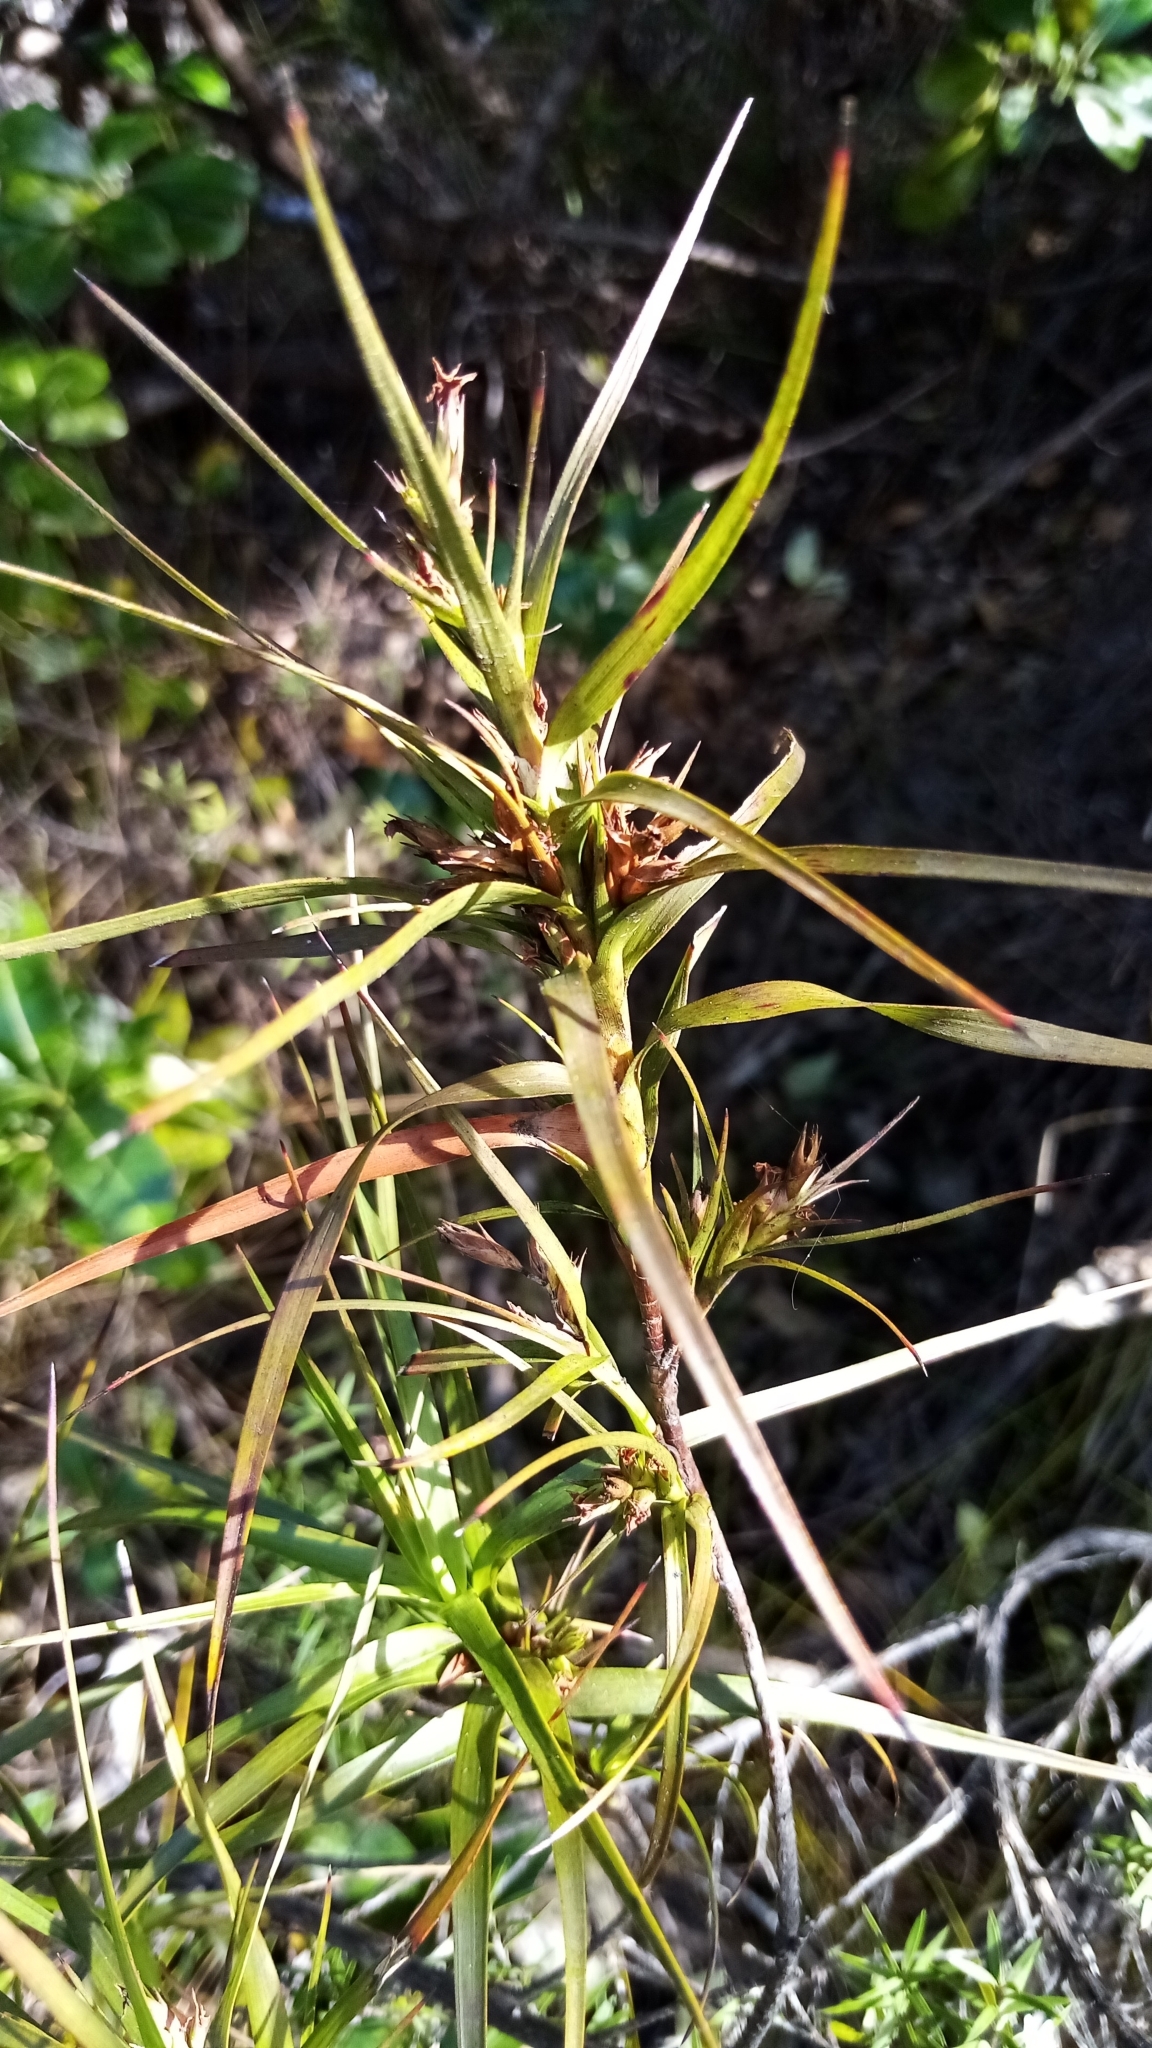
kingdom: Plantae
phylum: Tracheophyta
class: Magnoliopsida
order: Ericales
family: Ericaceae
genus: Dracophyllum
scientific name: Dracophyllum sinclairii
